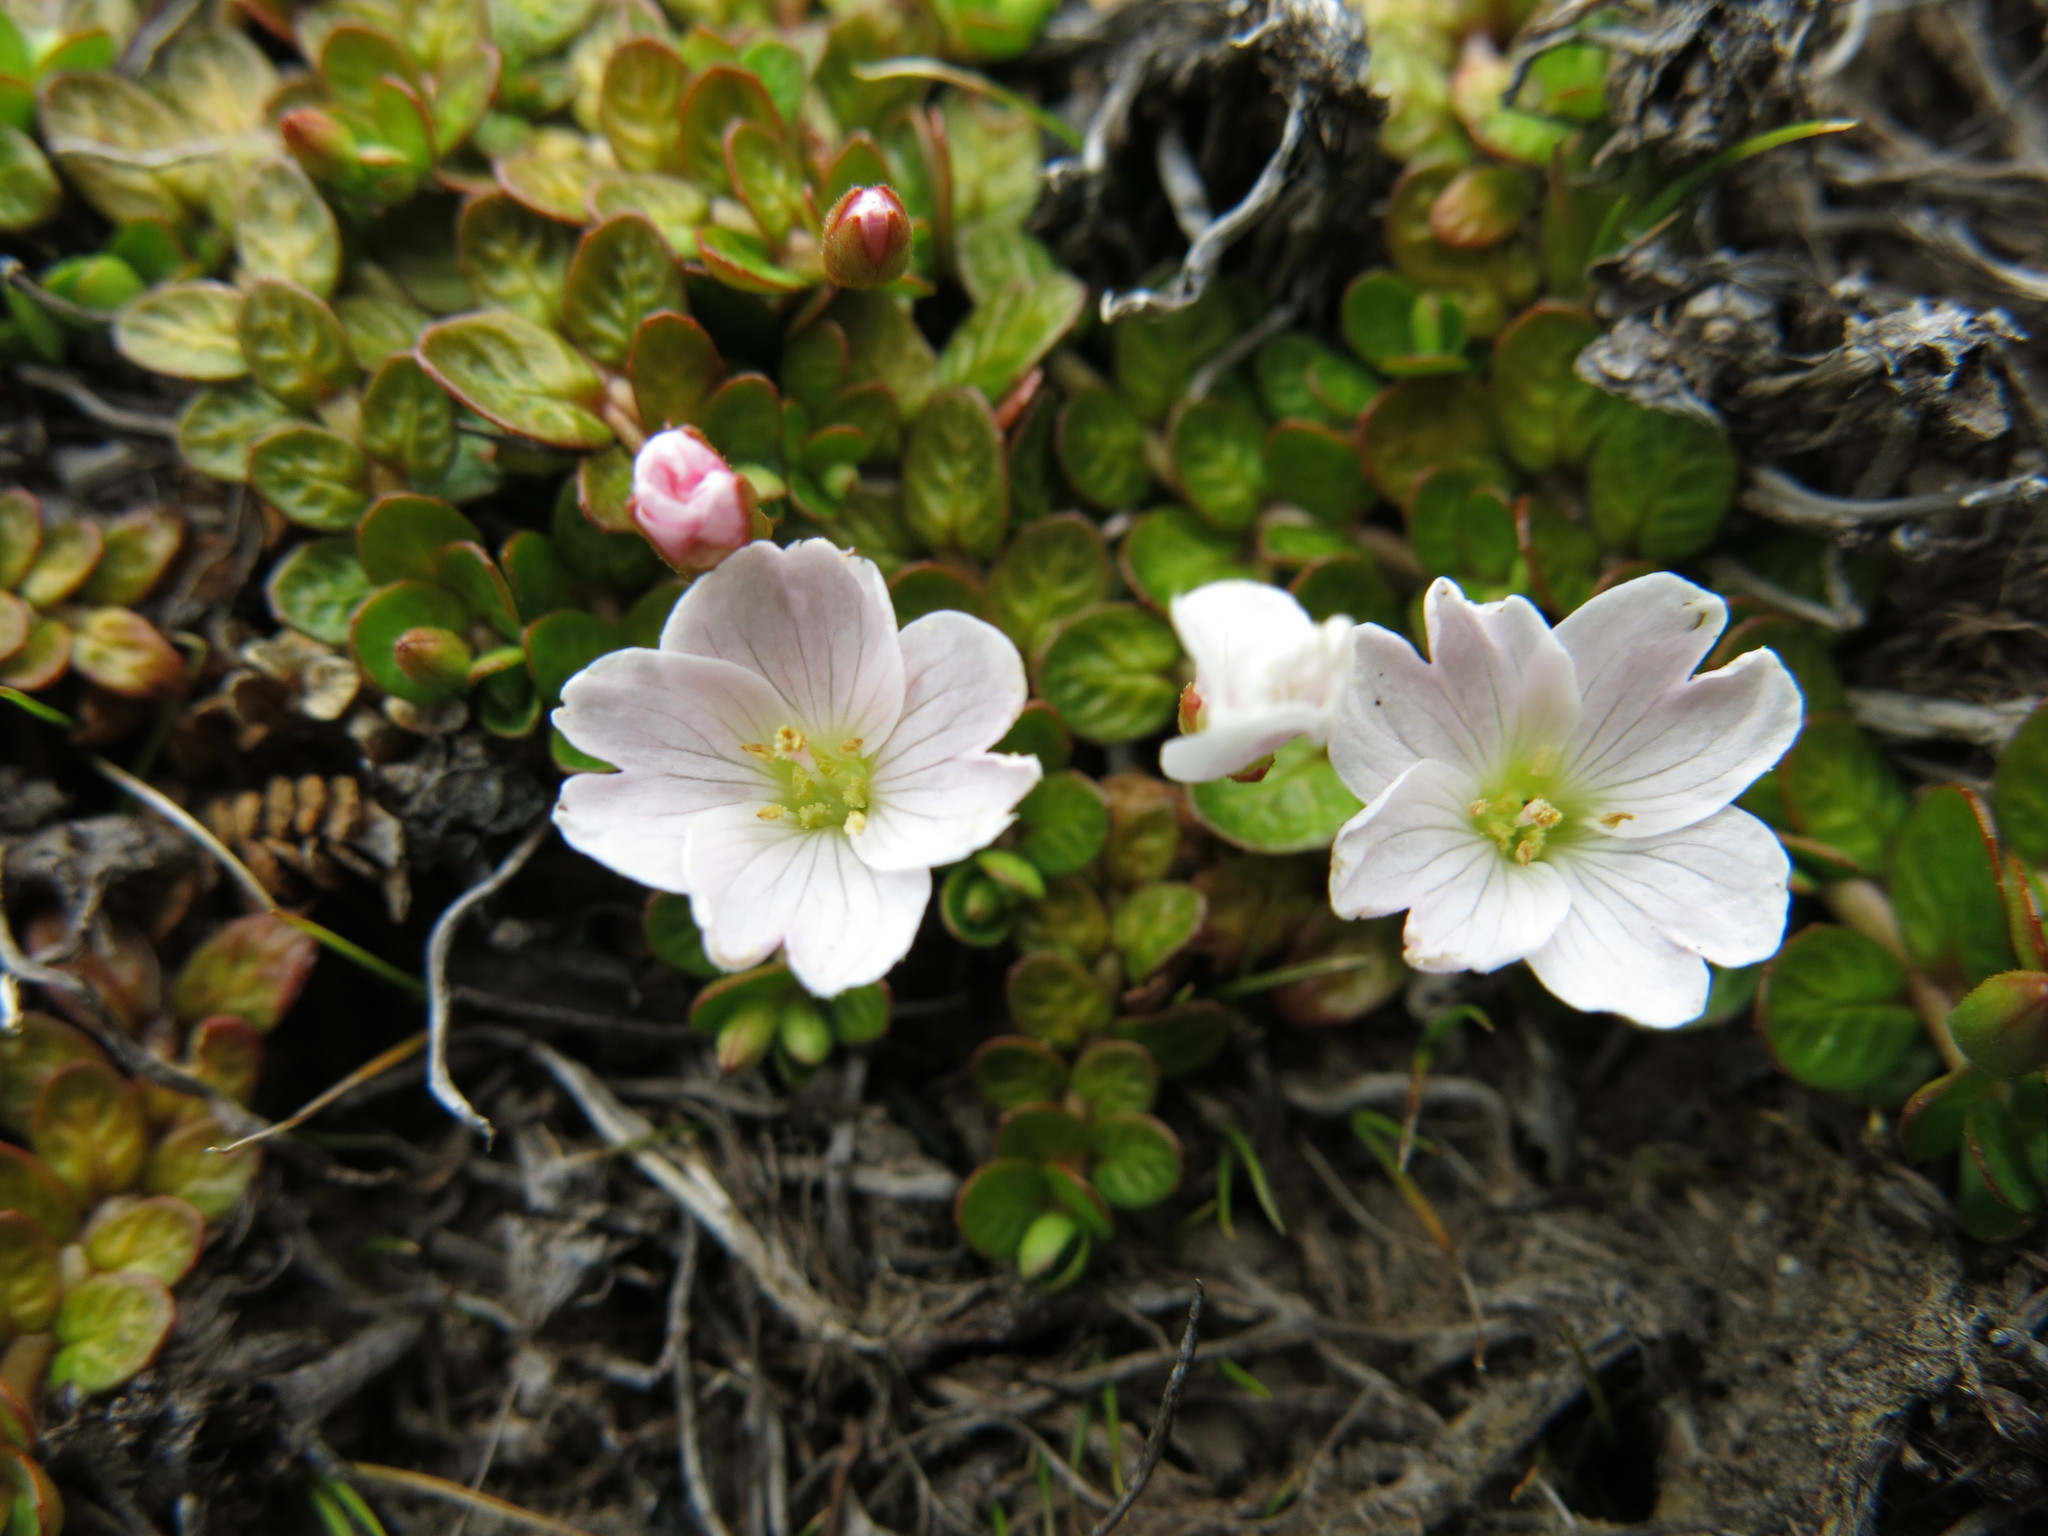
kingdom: Plantae
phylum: Tracheophyta
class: Magnoliopsida
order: Myrtales
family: Onagraceae
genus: Epilobium
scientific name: Epilobium angustum
